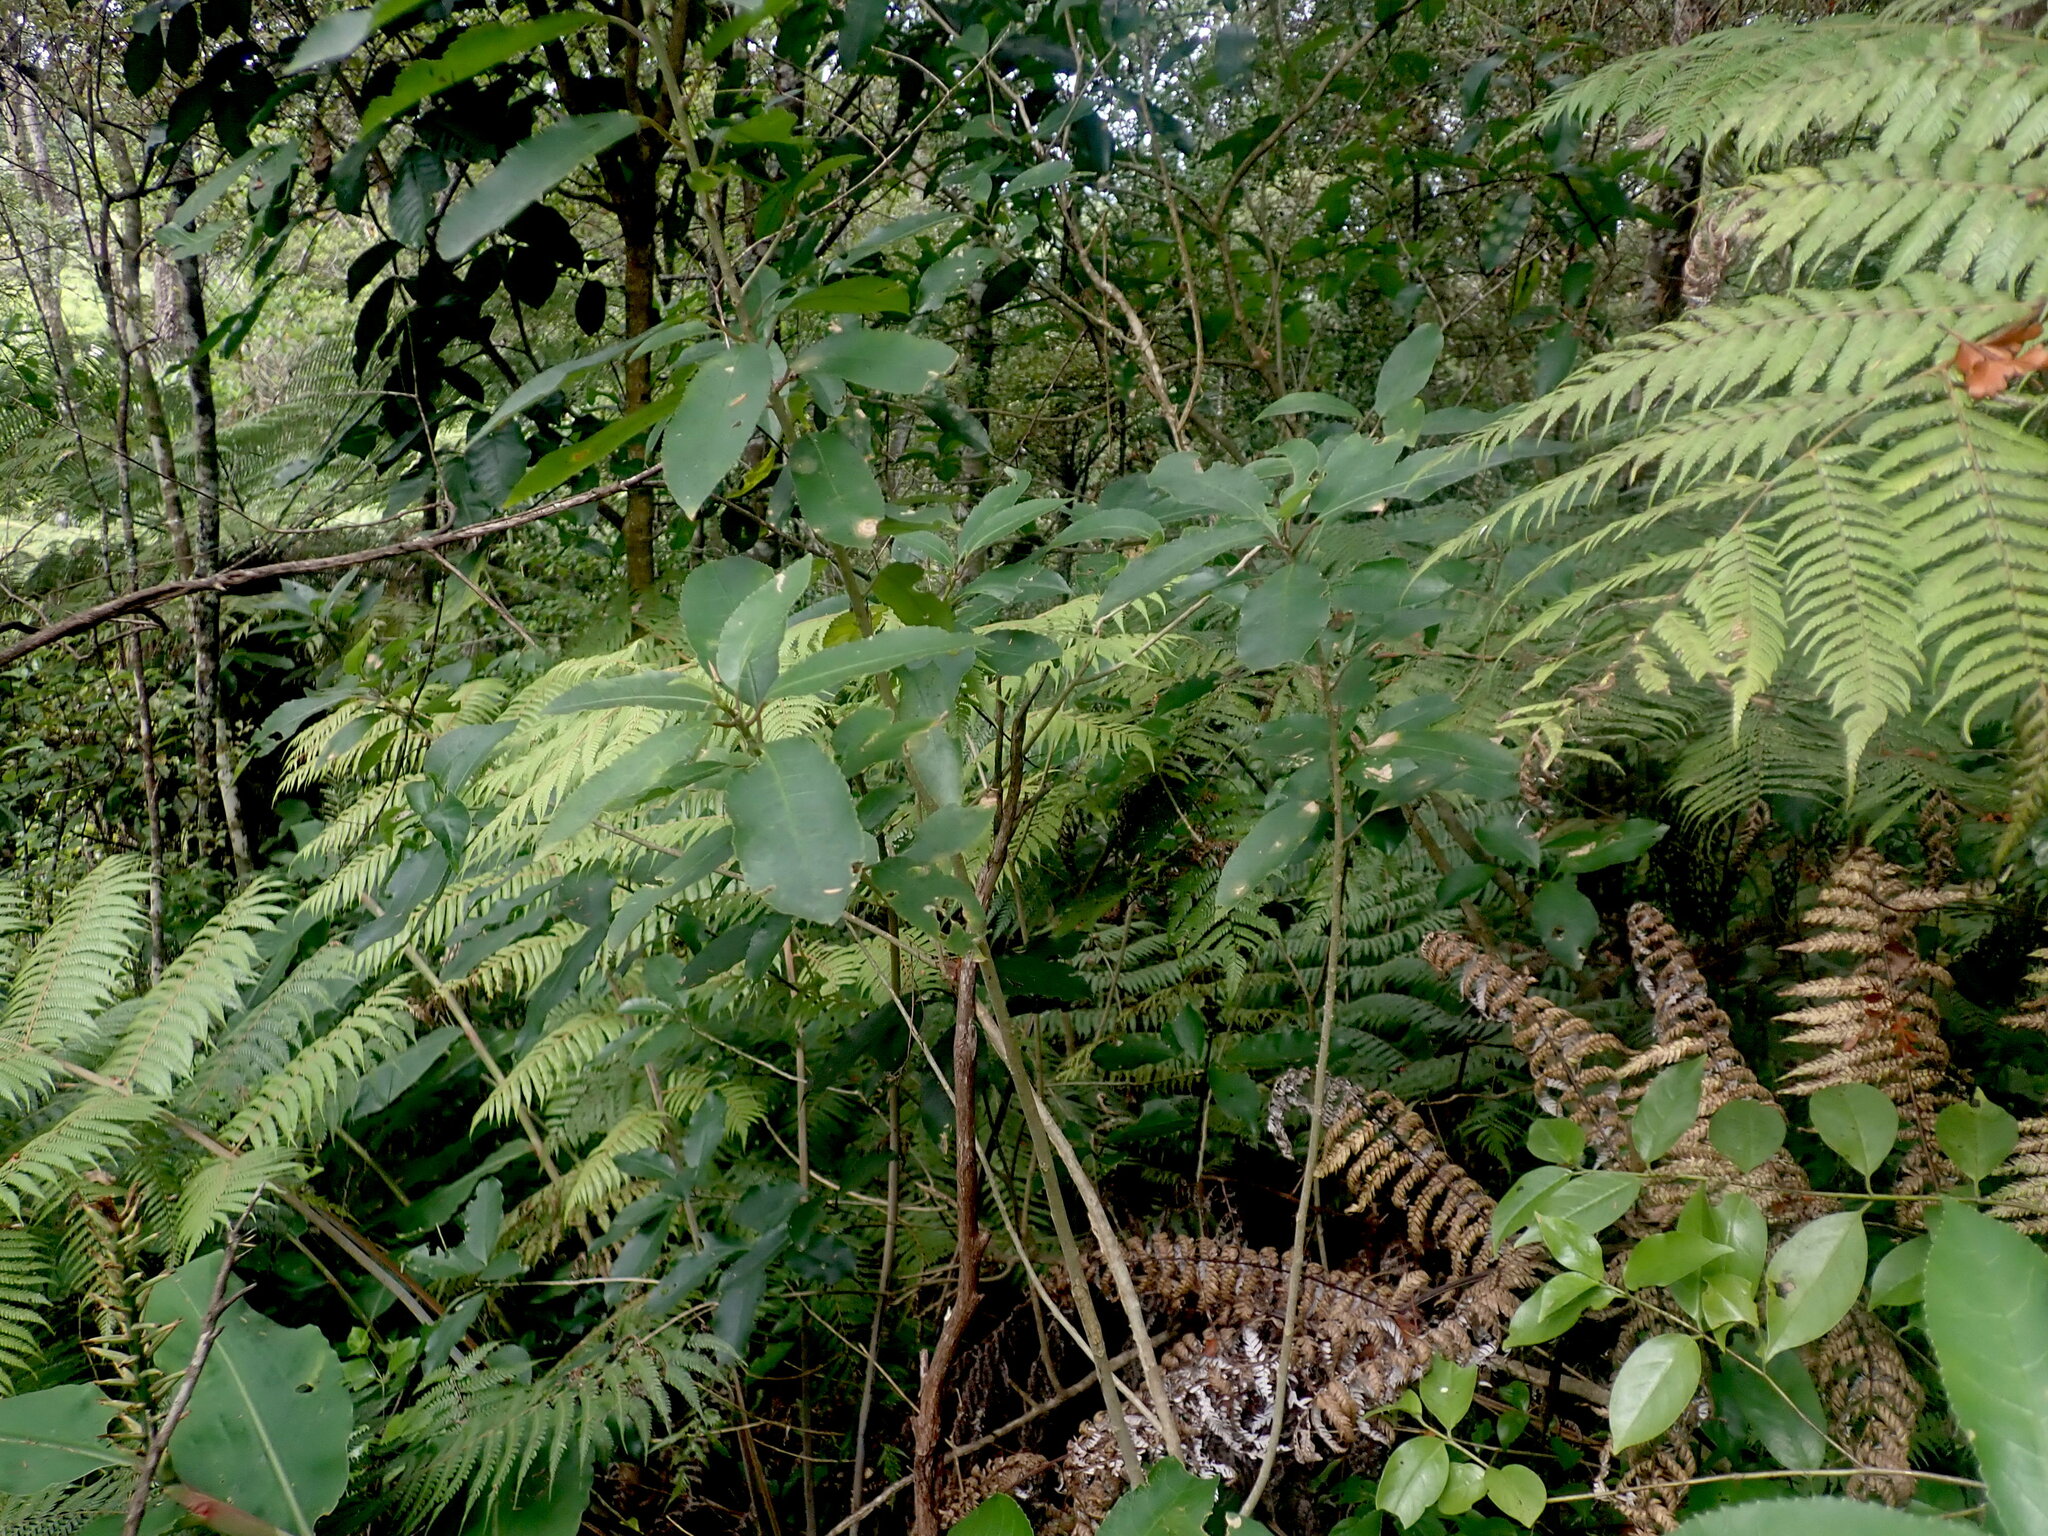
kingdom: Plantae
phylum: Tracheophyta
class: Magnoliopsida
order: Malpighiales
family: Violaceae
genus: Melicytus
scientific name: Melicytus ramiflorus
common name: Mahoe
